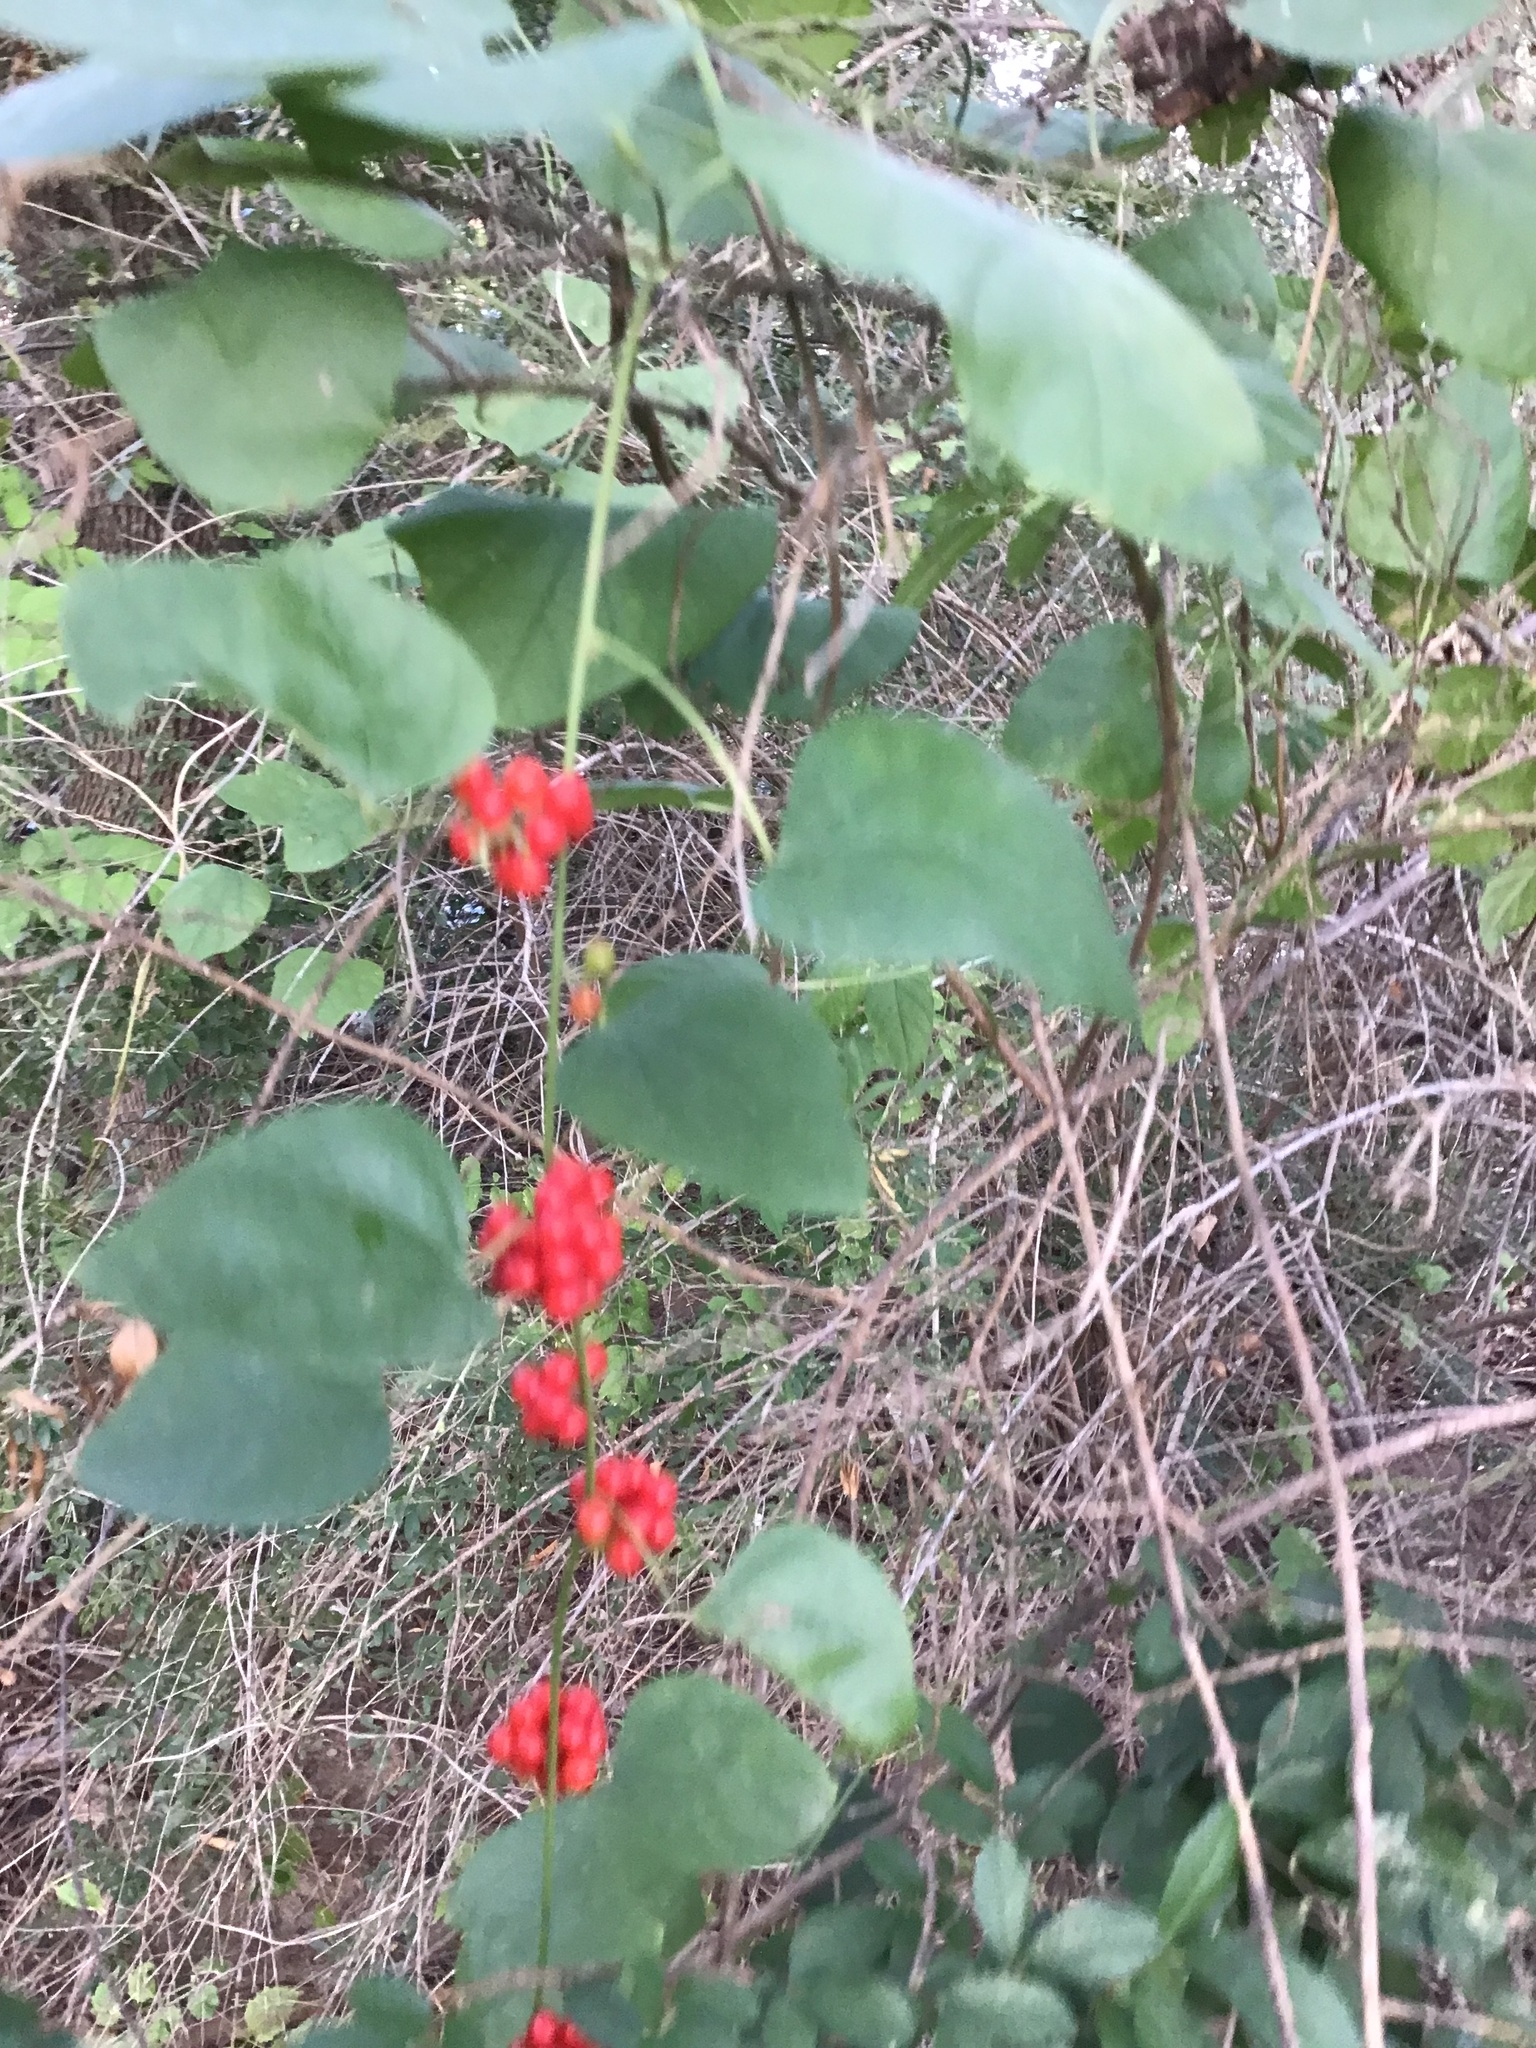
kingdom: Plantae
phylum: Tracheophyta
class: Magnoliopsida
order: Ranunculales
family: Menispermaceae
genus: Cocculus
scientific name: Cocculus carolinus
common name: Carolina moonseed
